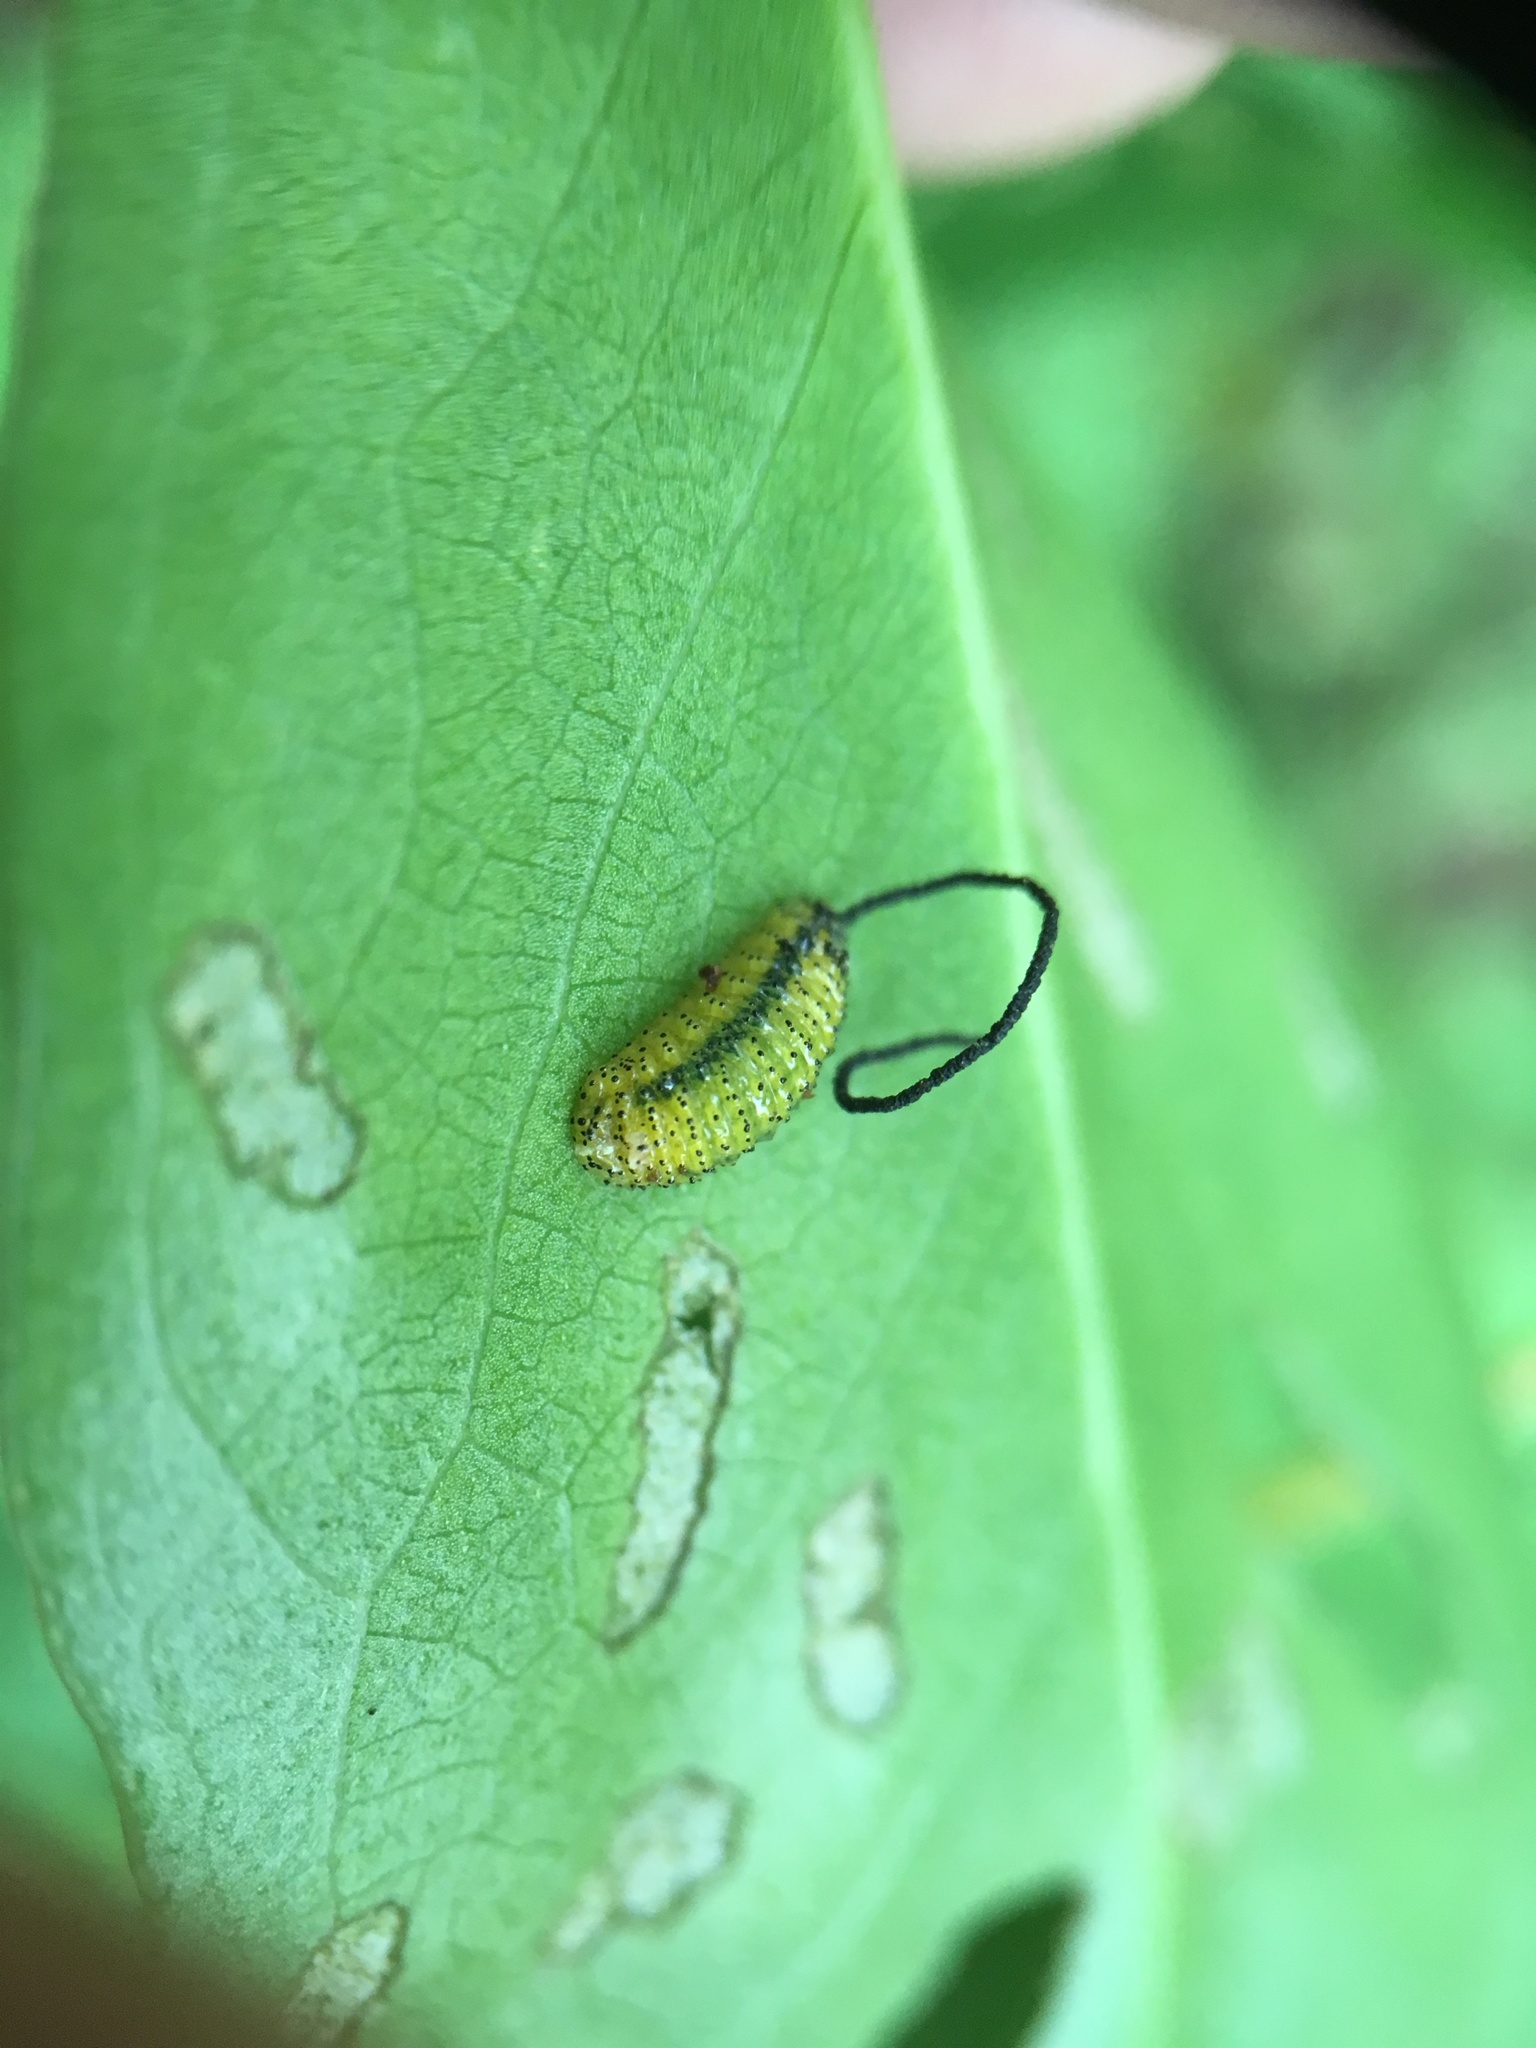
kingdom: Animalia
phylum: Arthropoda
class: Insecta
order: Coleoptera
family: Curculionidae
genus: Gonipterus
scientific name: Gonipterus platensis
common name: Eucalyptus snout beetle
